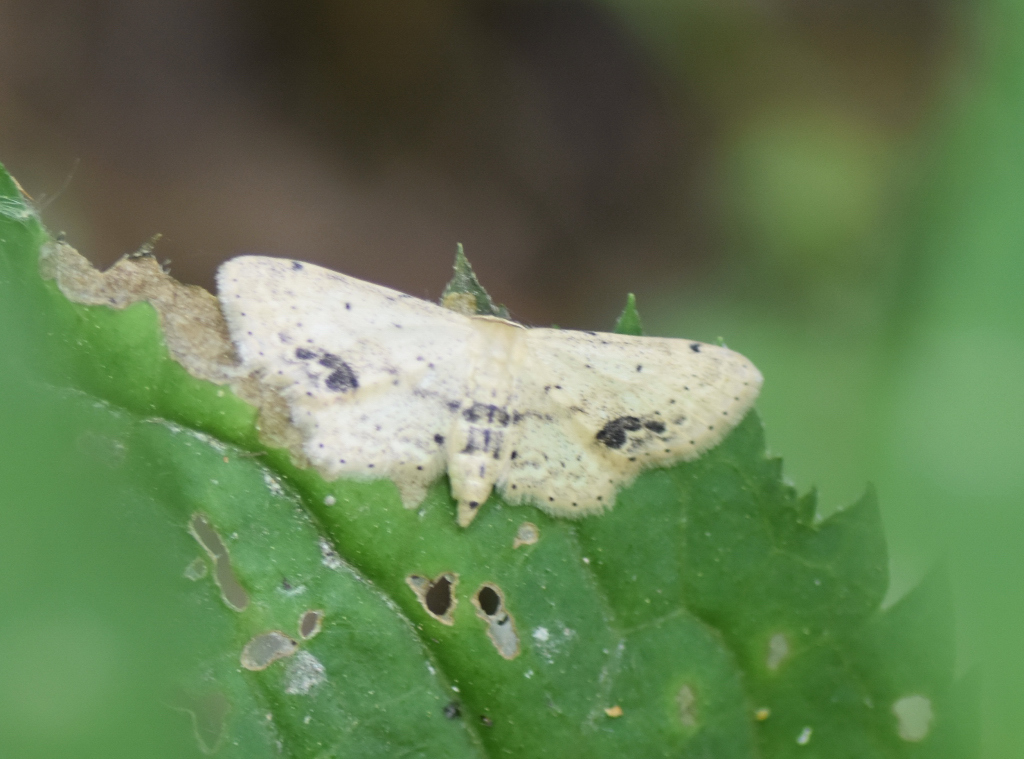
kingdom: Animalia
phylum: Arthropoda
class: Insecta
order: Lepidoptera
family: Geometridae
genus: Idaea
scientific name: Idaea dimidiata
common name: Single-dotted wave
